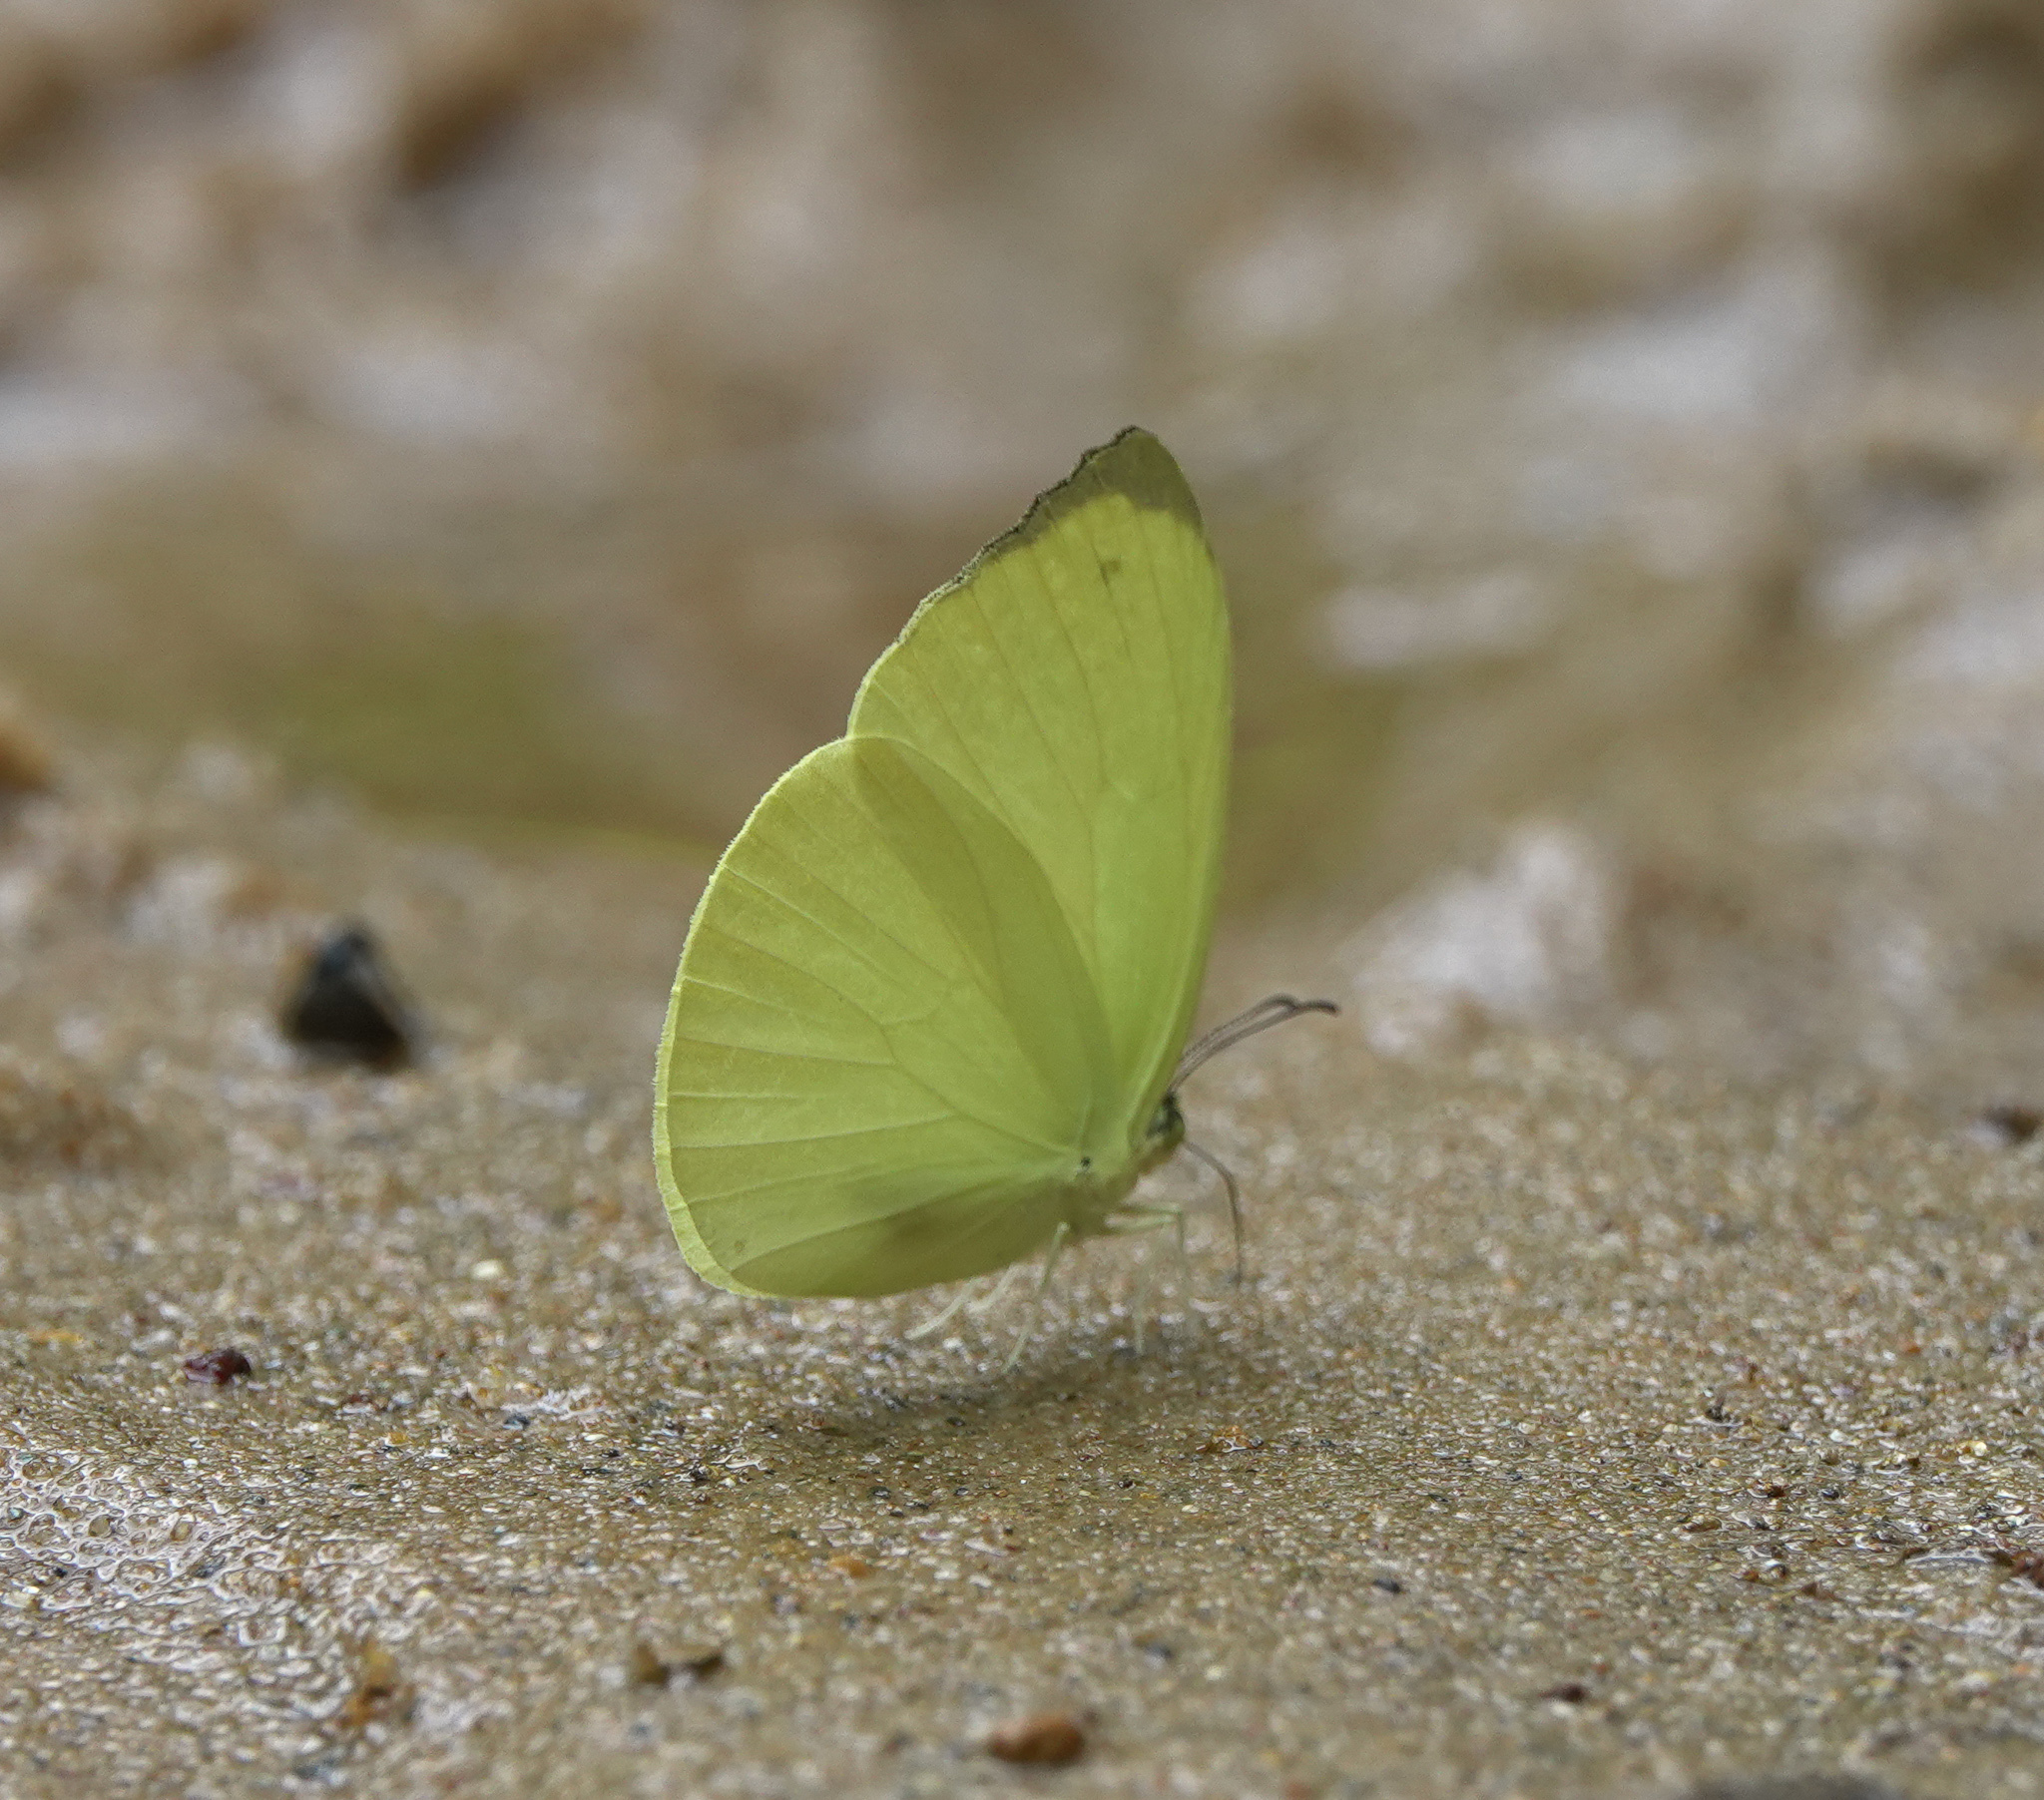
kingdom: Animalia
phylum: Arthropoda
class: Insecta
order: Lepidoptera
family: Pieridae
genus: Gandaca
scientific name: Gandaca harina
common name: Tree yellow
